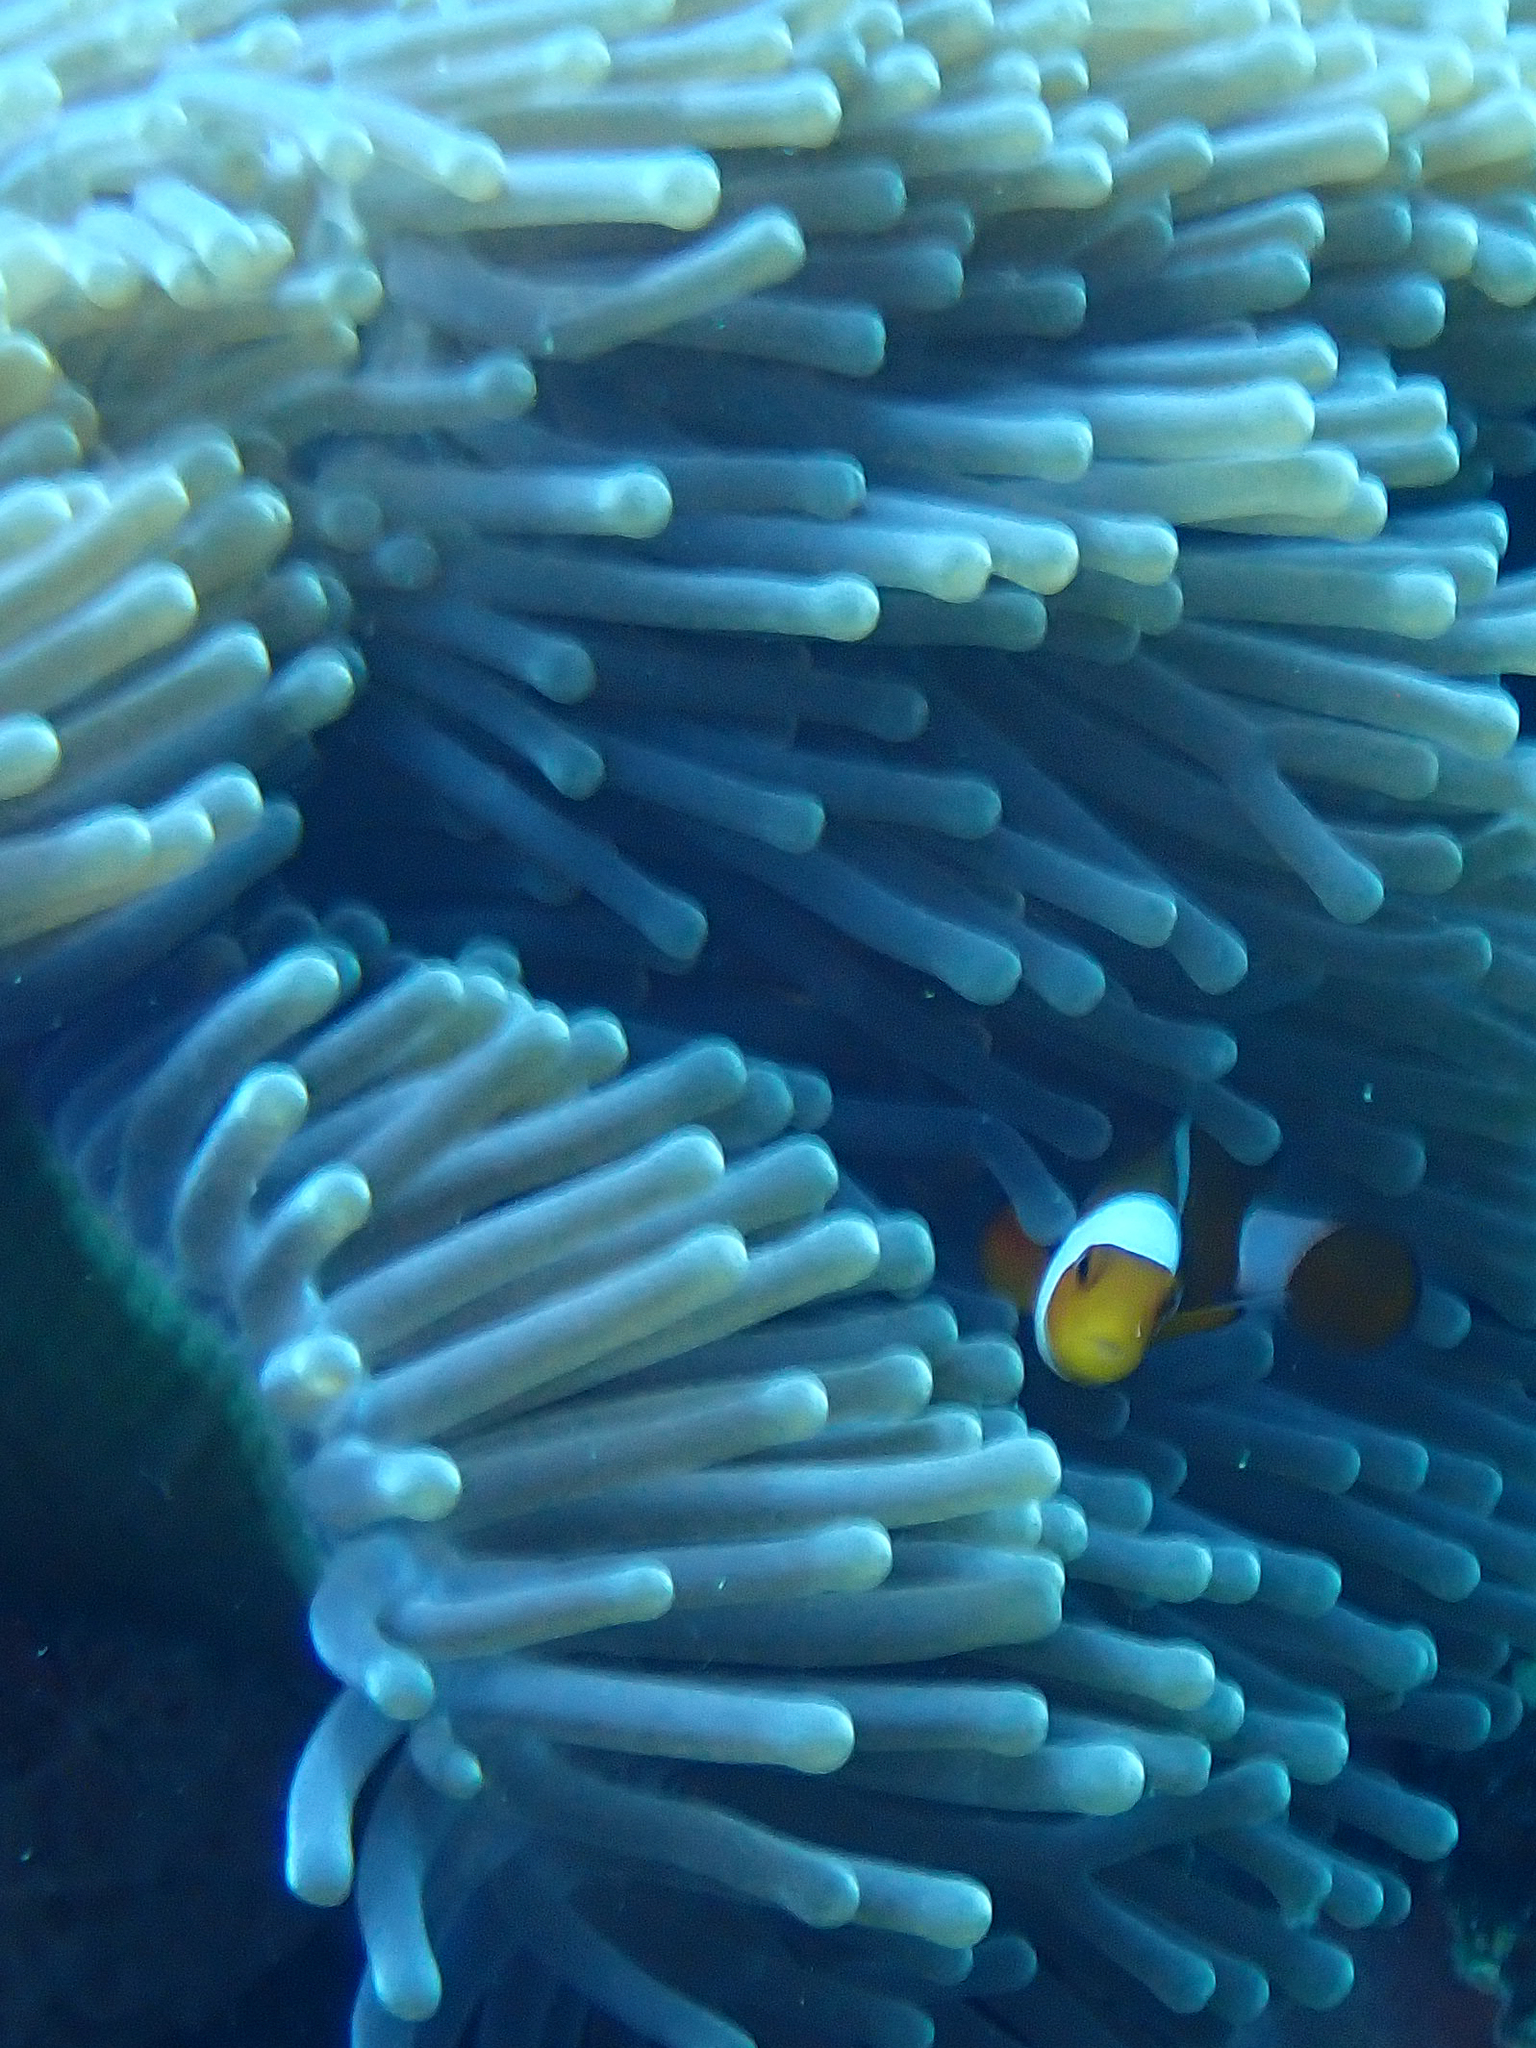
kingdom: Animalia
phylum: Chordata
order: Perciformes
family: Pomacentridae
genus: Amphiprion
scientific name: Amphiprion ocellaris
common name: Clown anemonefish
